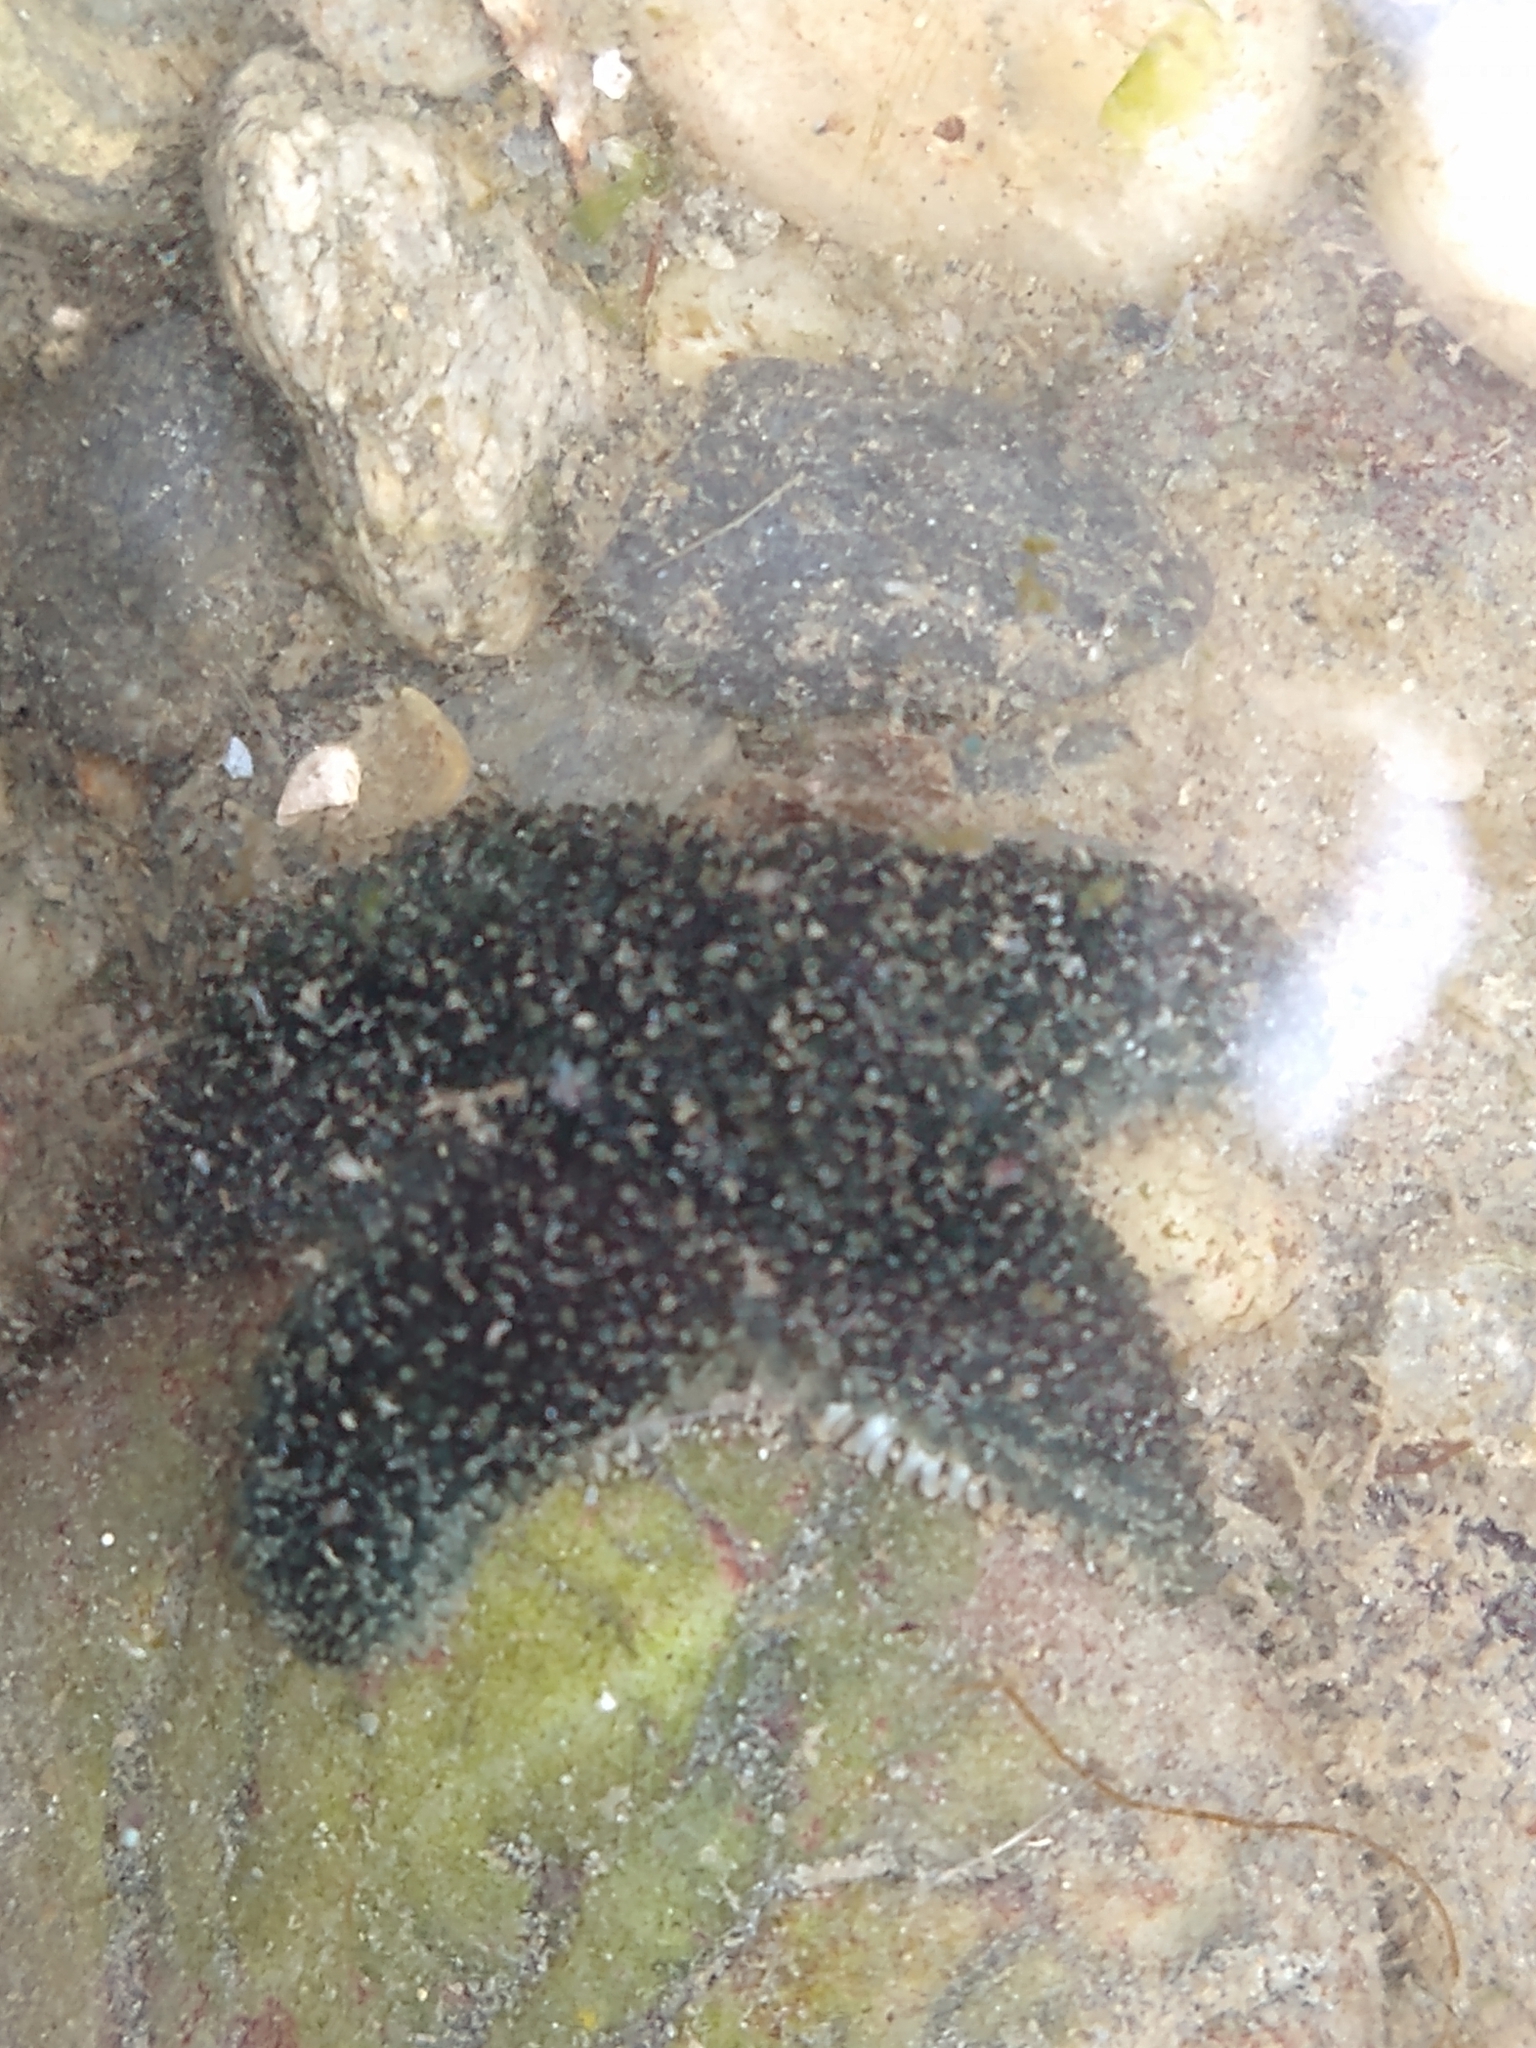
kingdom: Animalia
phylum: Echinodermata
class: Asteroidea
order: Forcipulatida
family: Asteriidae
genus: Anasterias
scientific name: Anasterias antarctica
